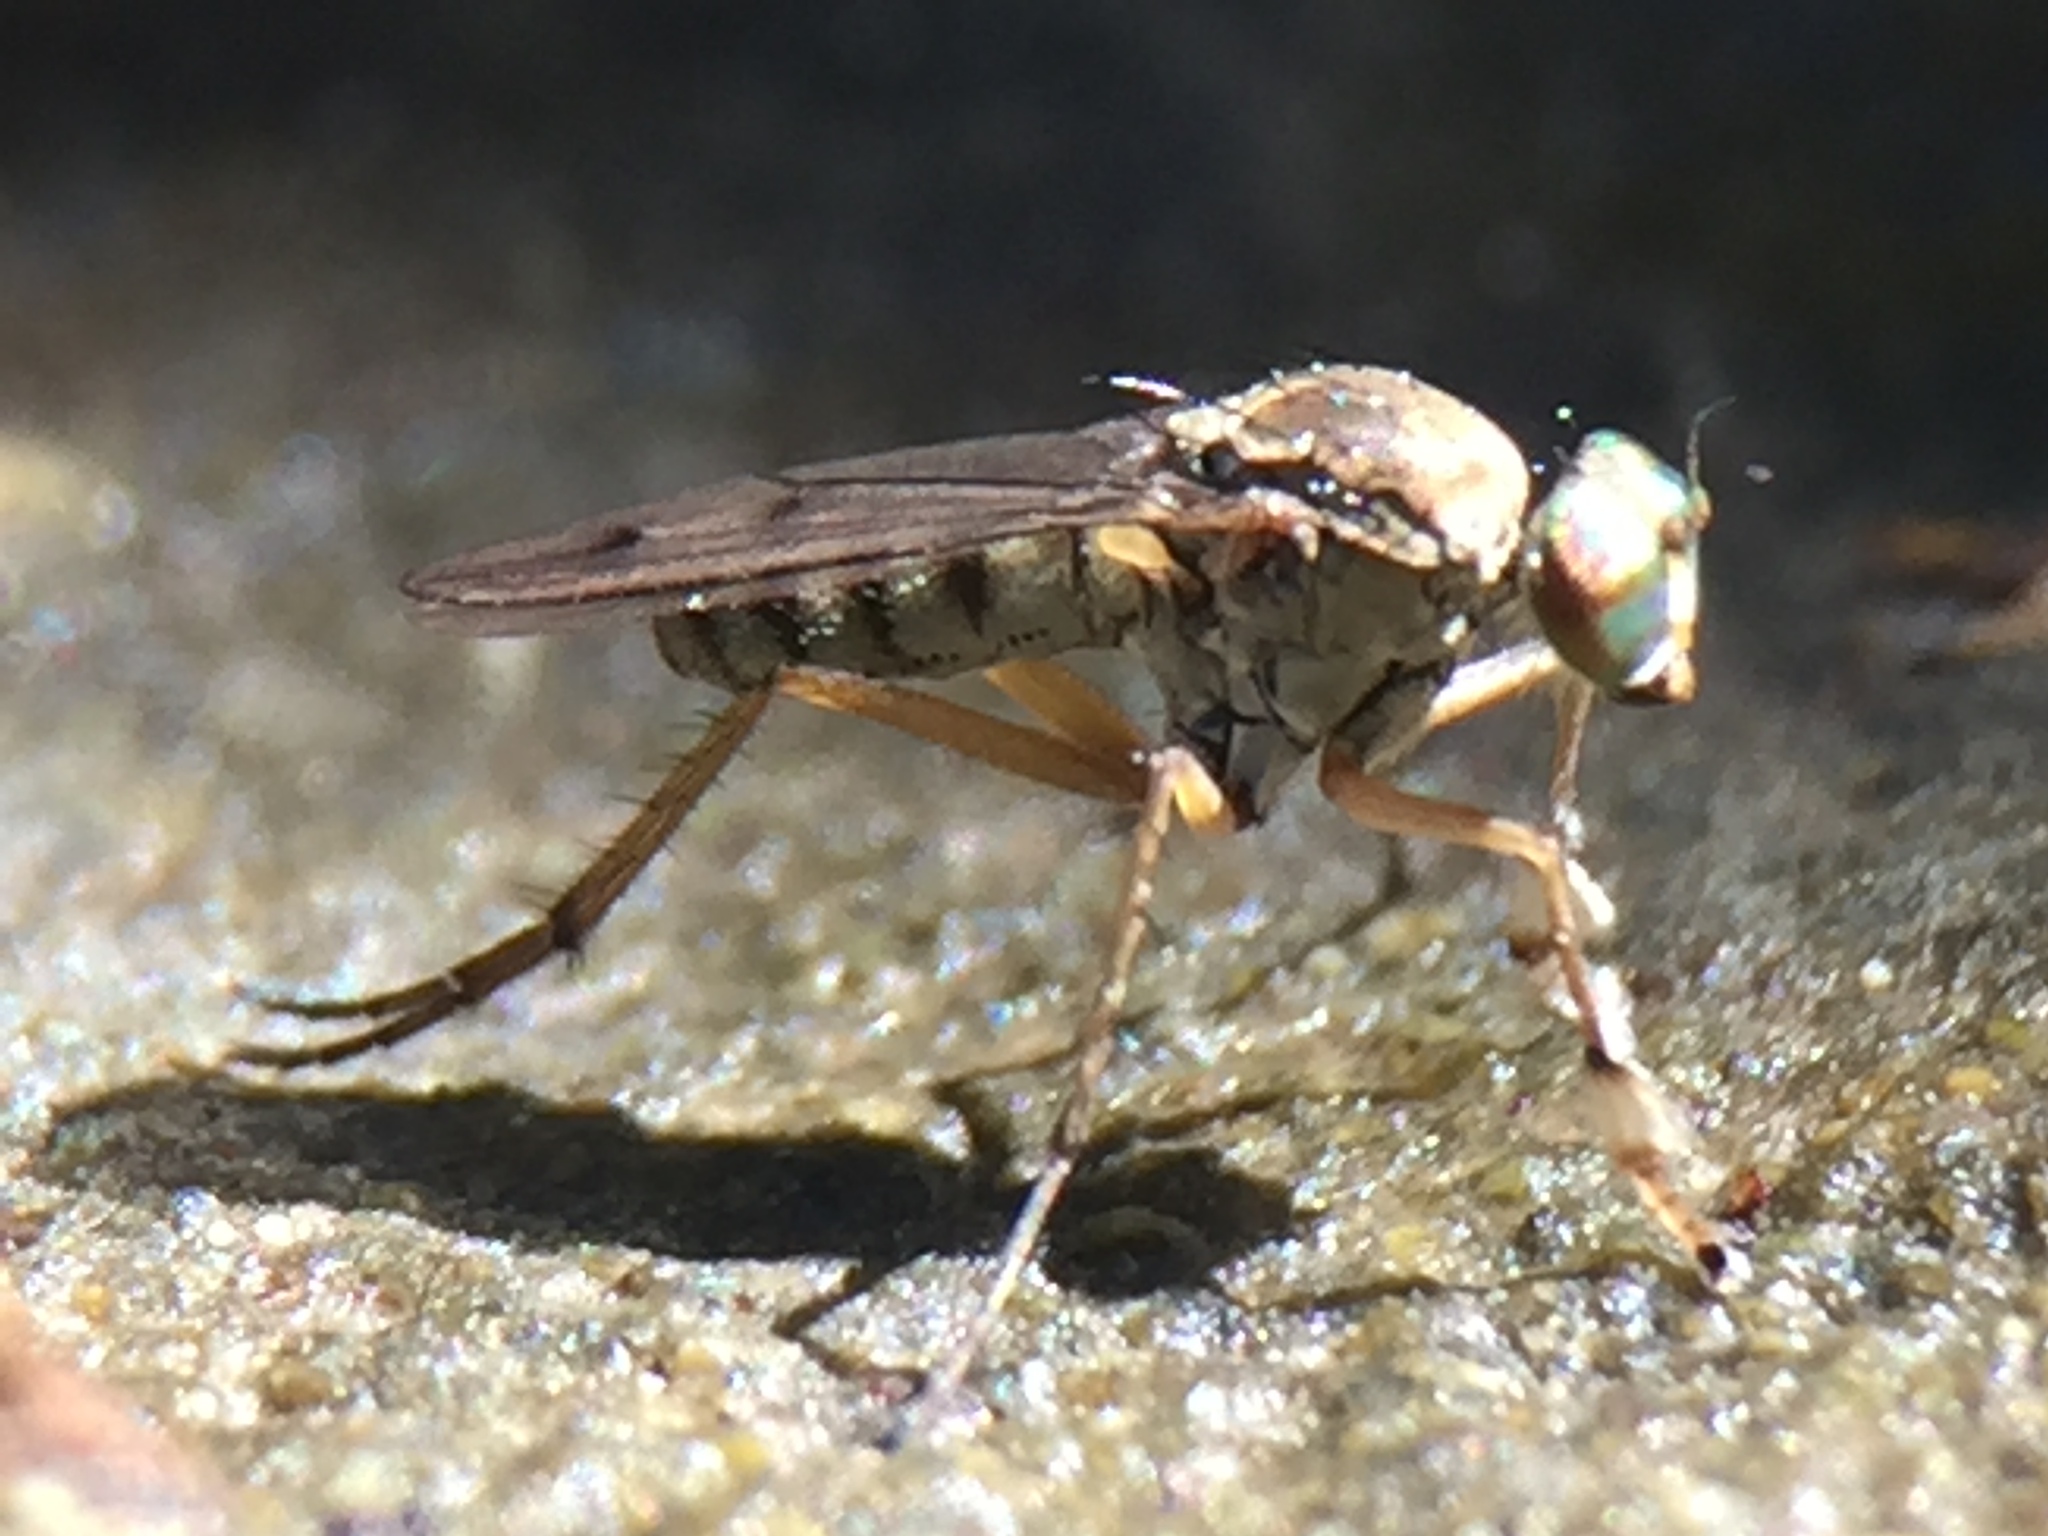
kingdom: Animalia
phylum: Arthropoda
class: Insecta
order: Diptera
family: Dolichopodidae
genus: Helichochaetus
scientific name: Helichochaetus discifer
